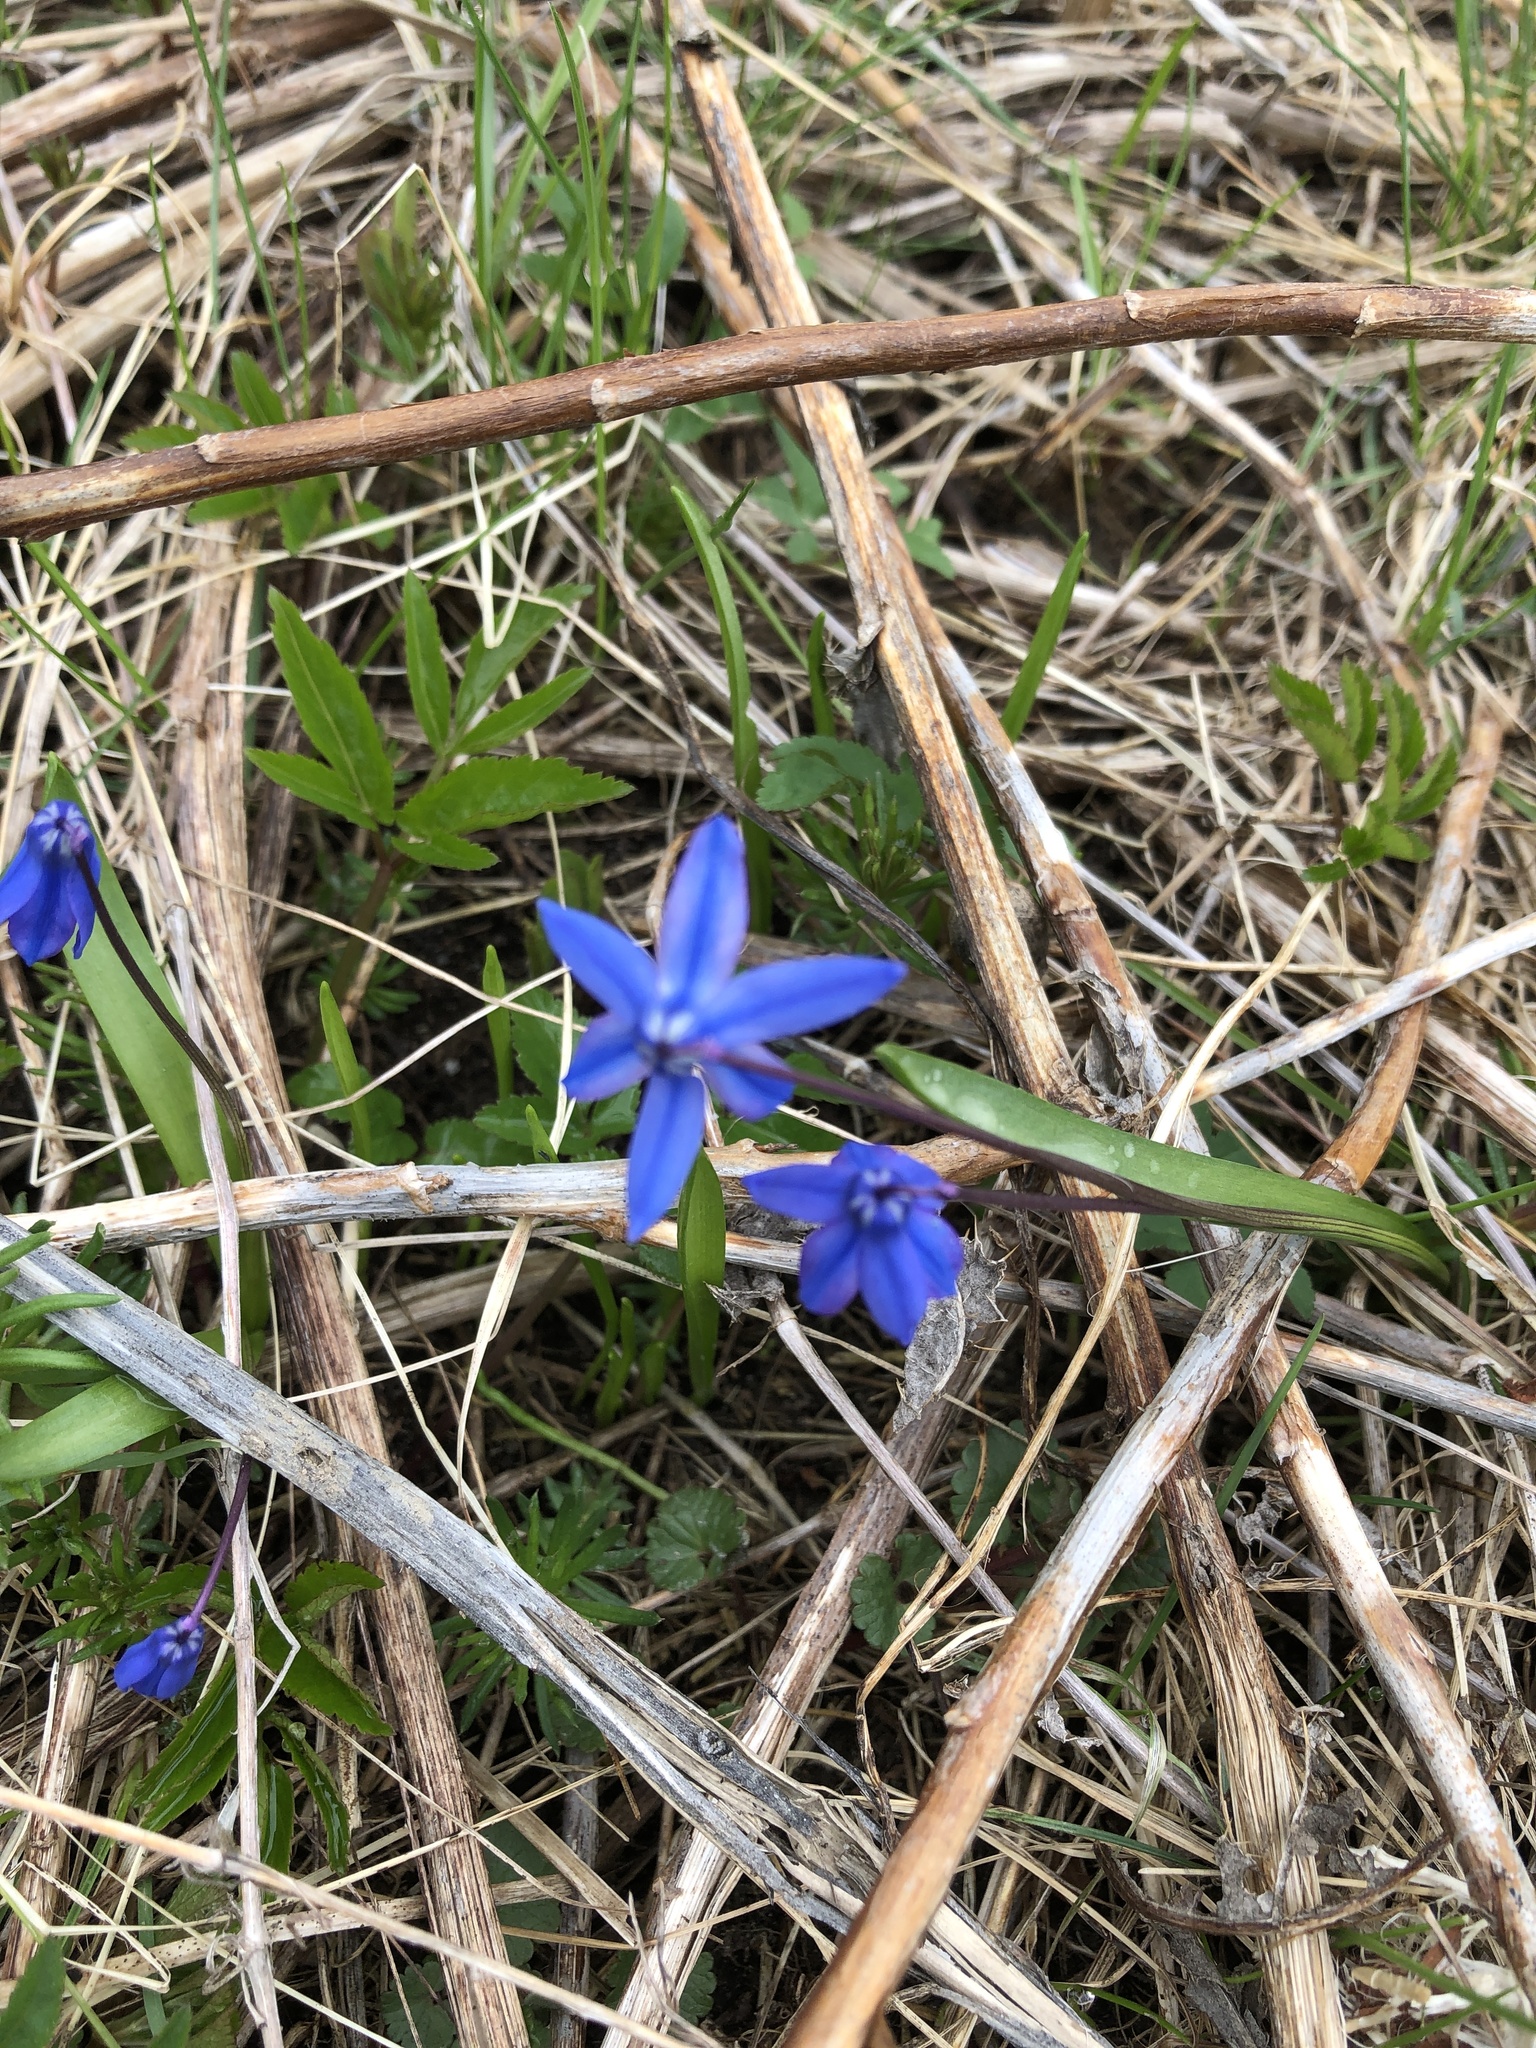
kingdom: Plantae
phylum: Tracheophyta
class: Liliopsida
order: Asparagales
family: Asparagaceae
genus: Scilla
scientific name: Scilla siberica
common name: Siberian squill
